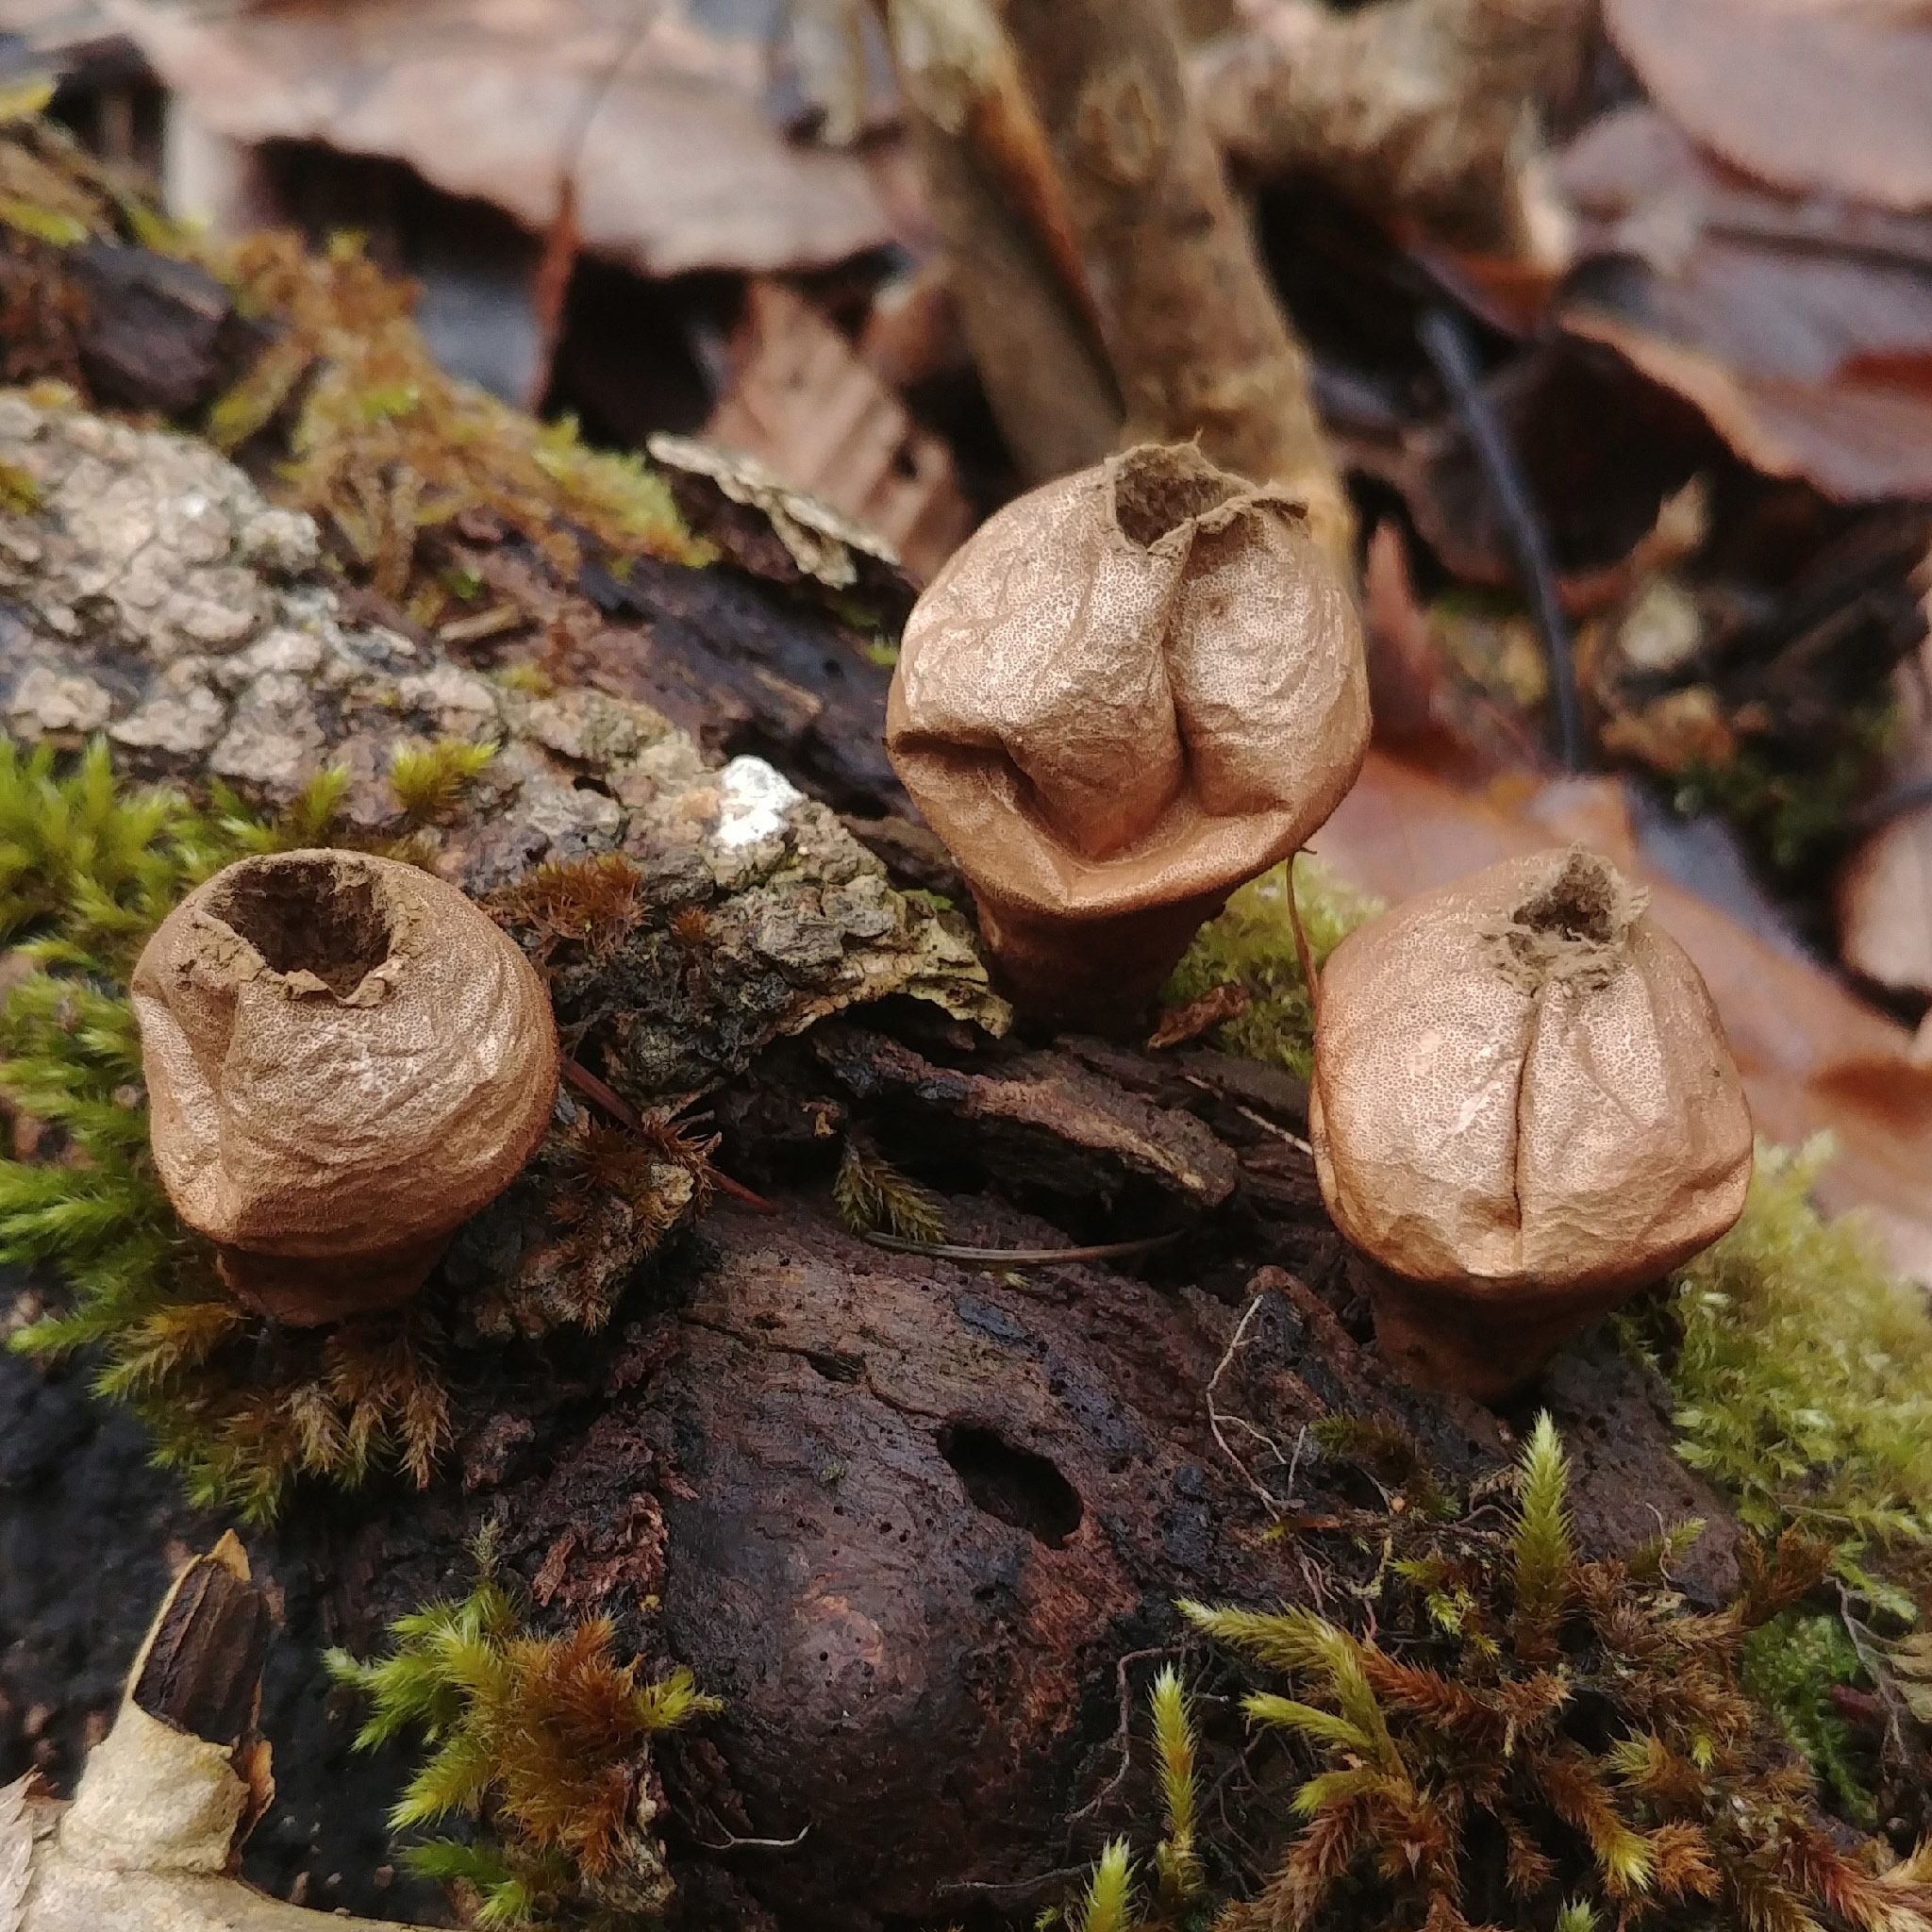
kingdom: Fungi
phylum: Basidiomycota
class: Agaricomycetes
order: Agaricales
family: Lycoperdaceae
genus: Apioperdon
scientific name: Apioperdon pyriforme
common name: Pear-shaped puffball
